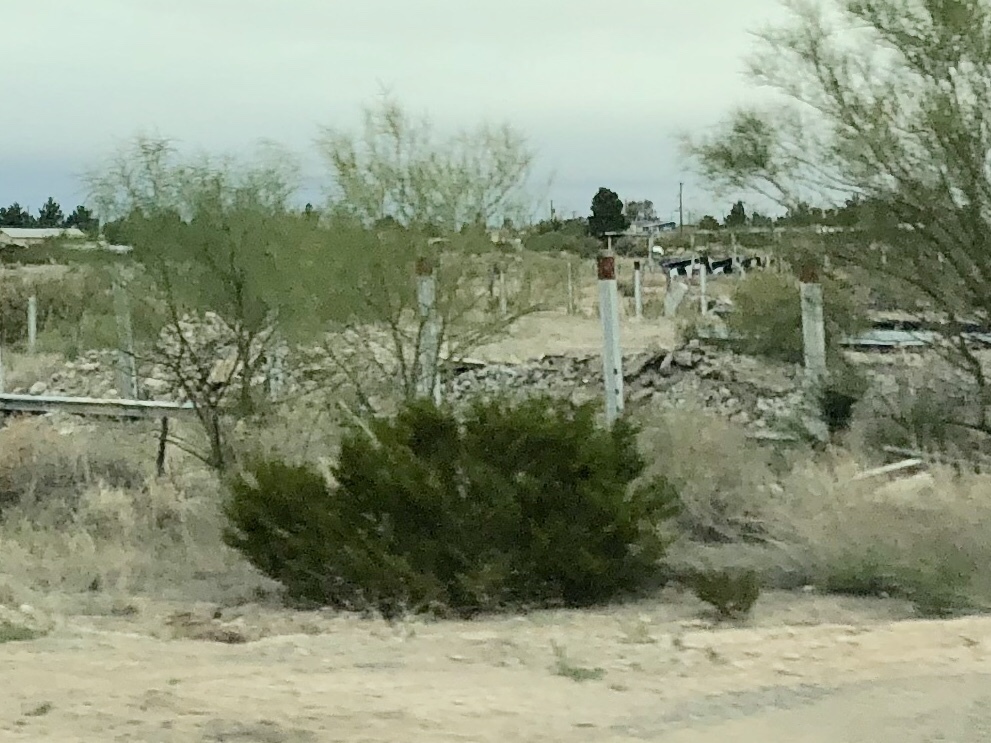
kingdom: Plantae
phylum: Tracheophyta
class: Magnoliopsida
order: Zygophyllales
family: Zygophyllaceae
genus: Larrea
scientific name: Larrea tridentata
